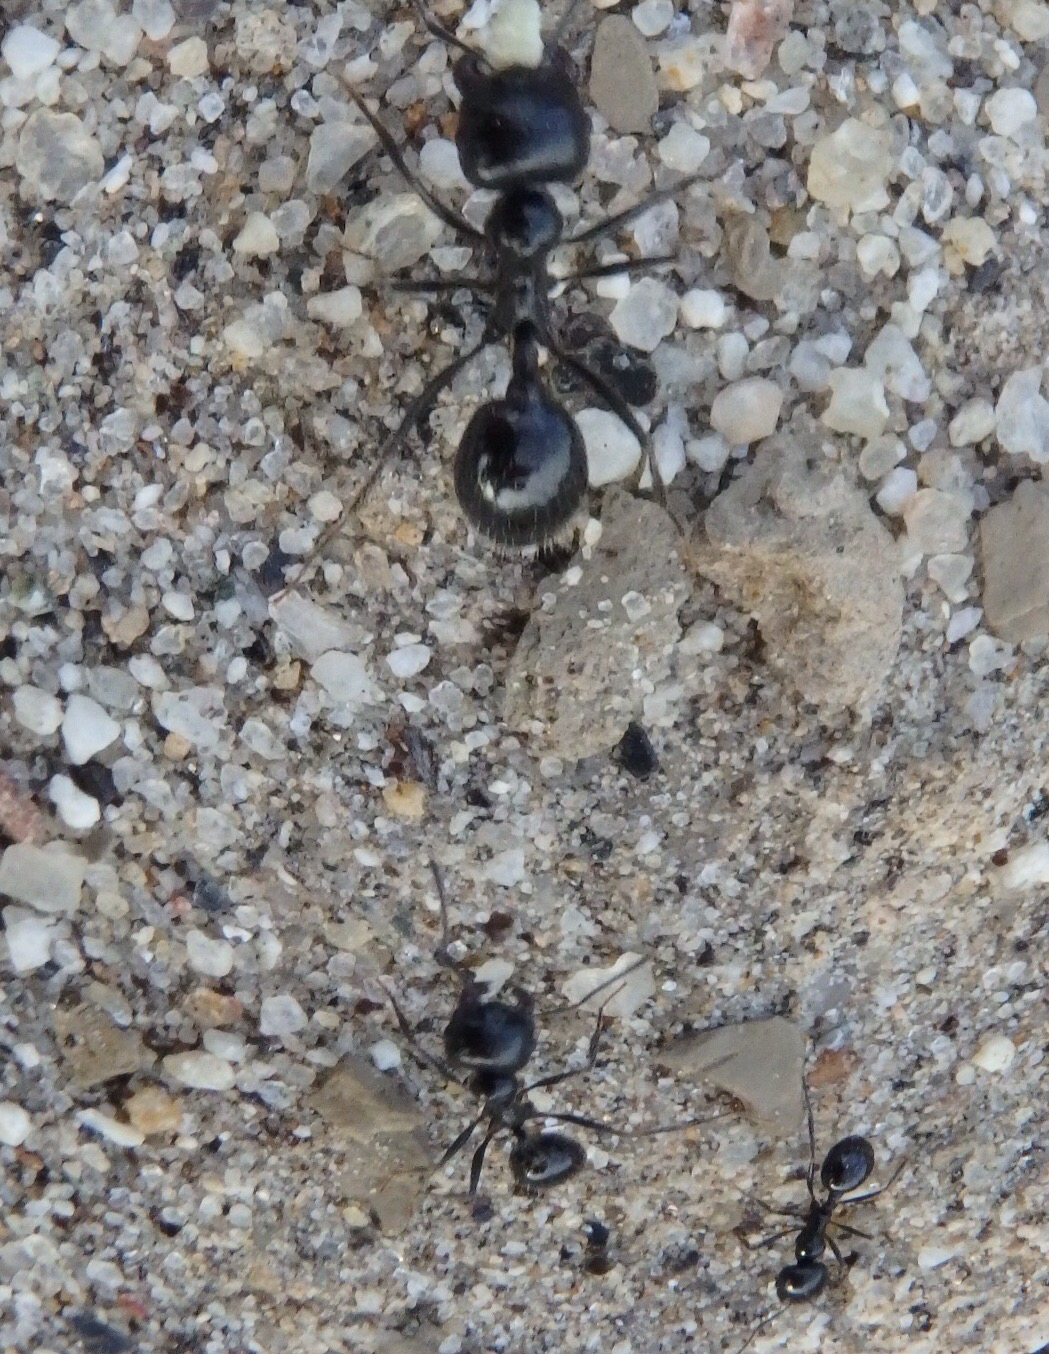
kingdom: Animalia
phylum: Arthropoda
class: Insecta
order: Hymenoptera
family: Formicidae
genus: Messor
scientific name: Messor pergandei
